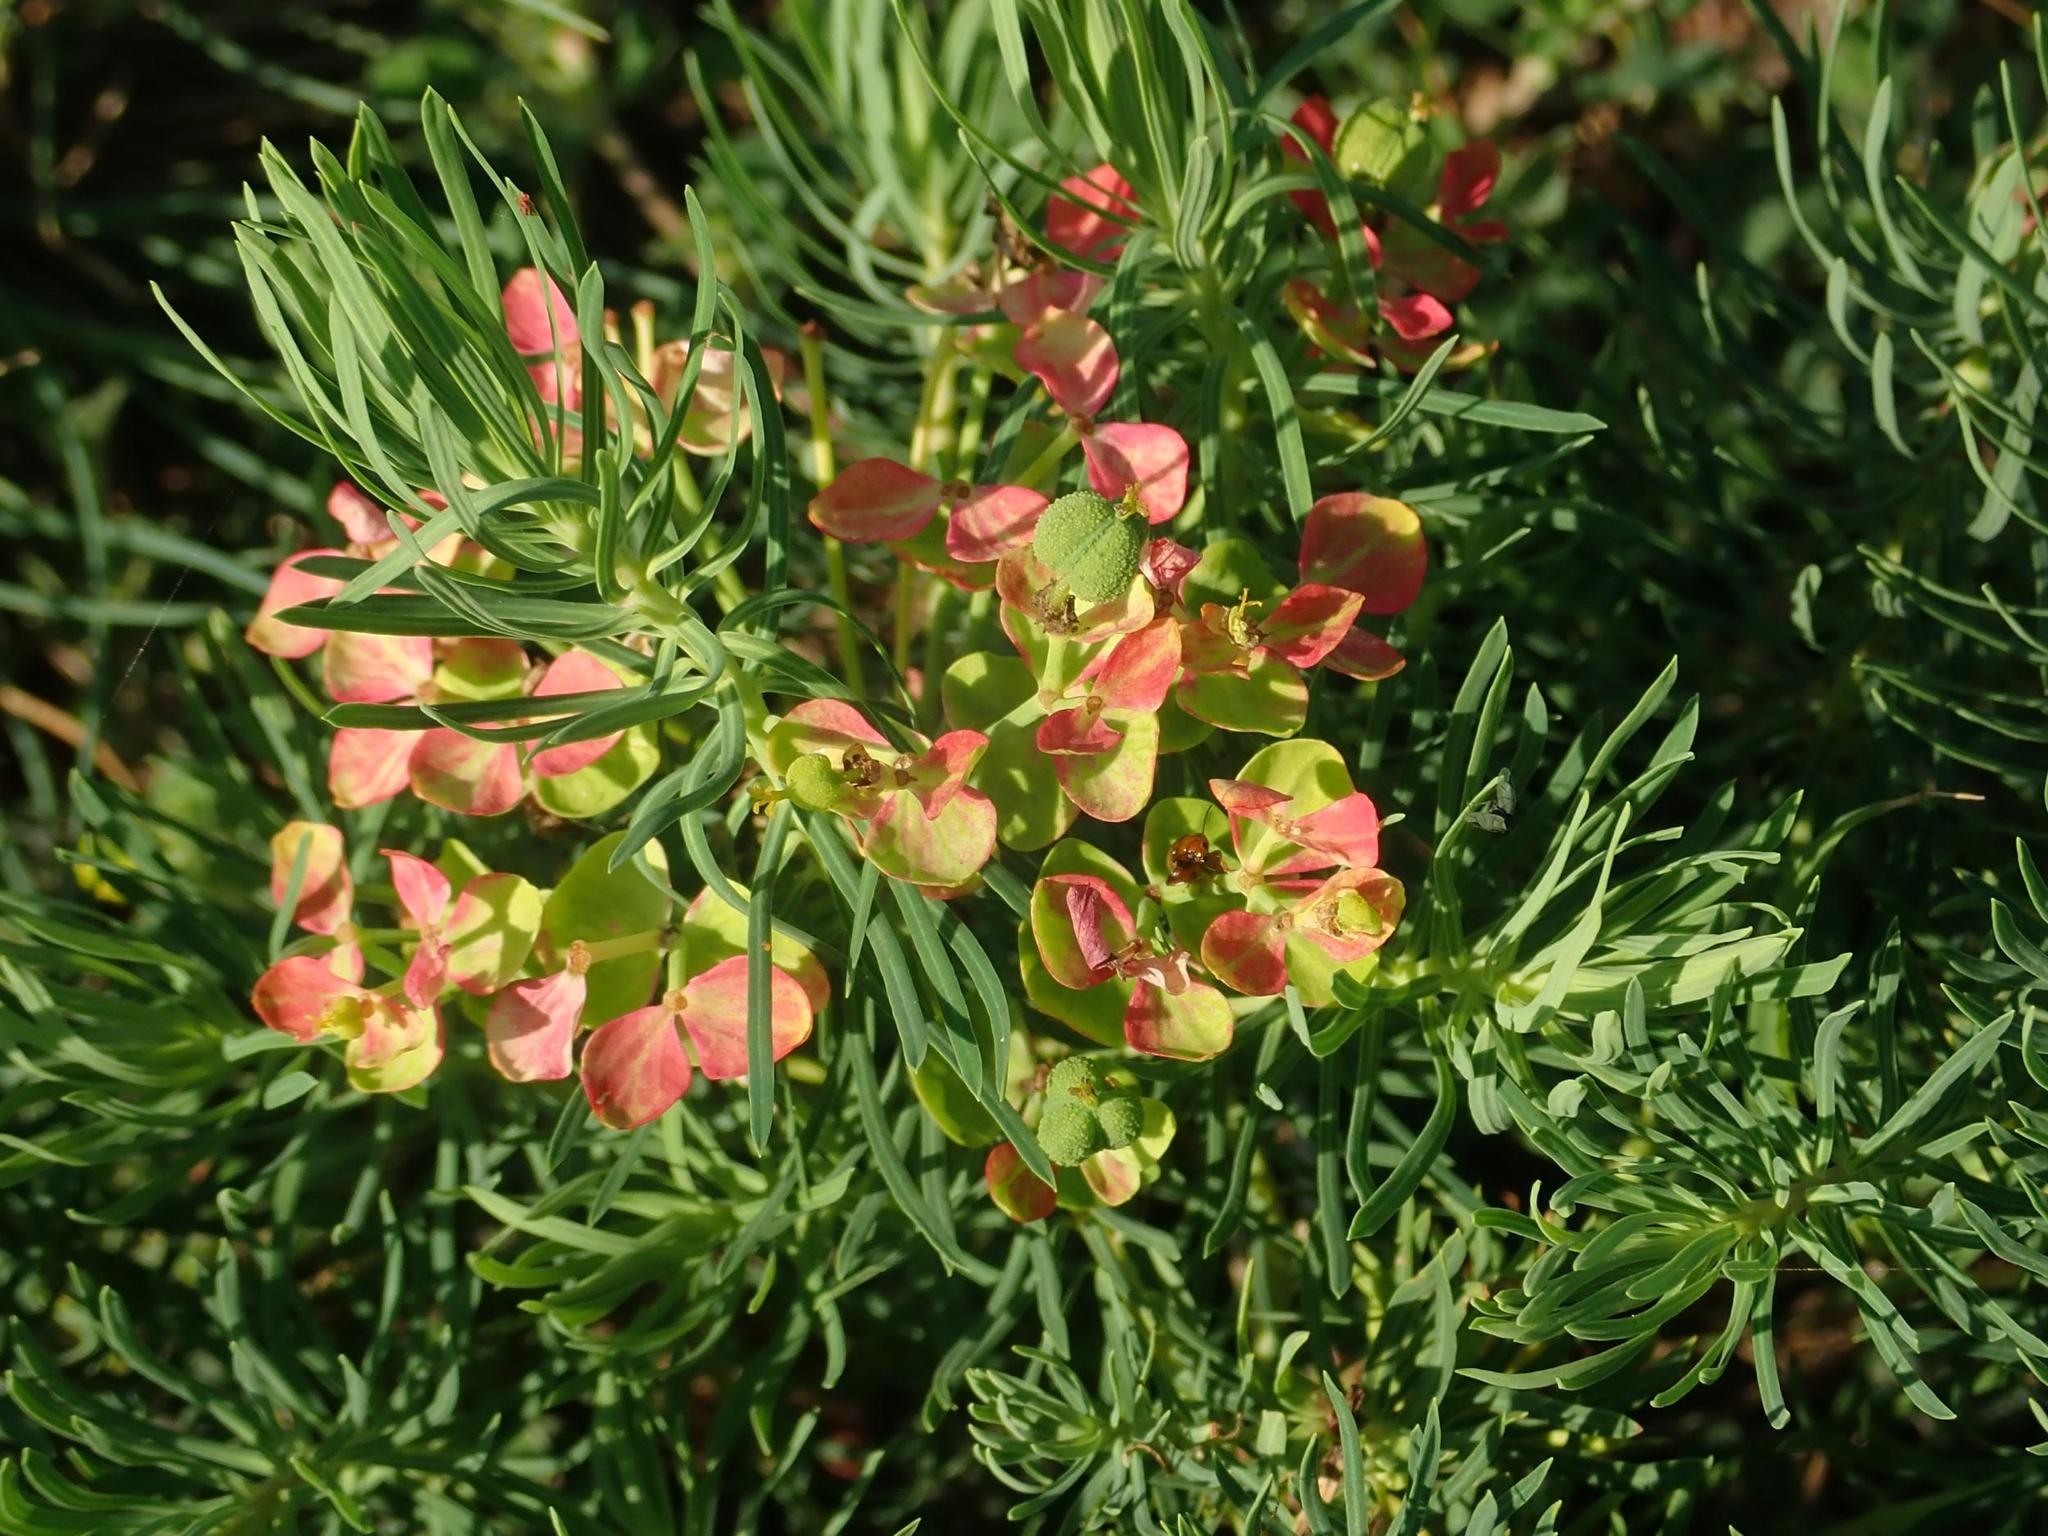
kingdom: Plantae
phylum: Tracheophyta
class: Magnoliopsida
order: Malpighiales
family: Euphorbiaceae
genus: Euphorbia
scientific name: Euphorbia cyparissias
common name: Cypress spurge
